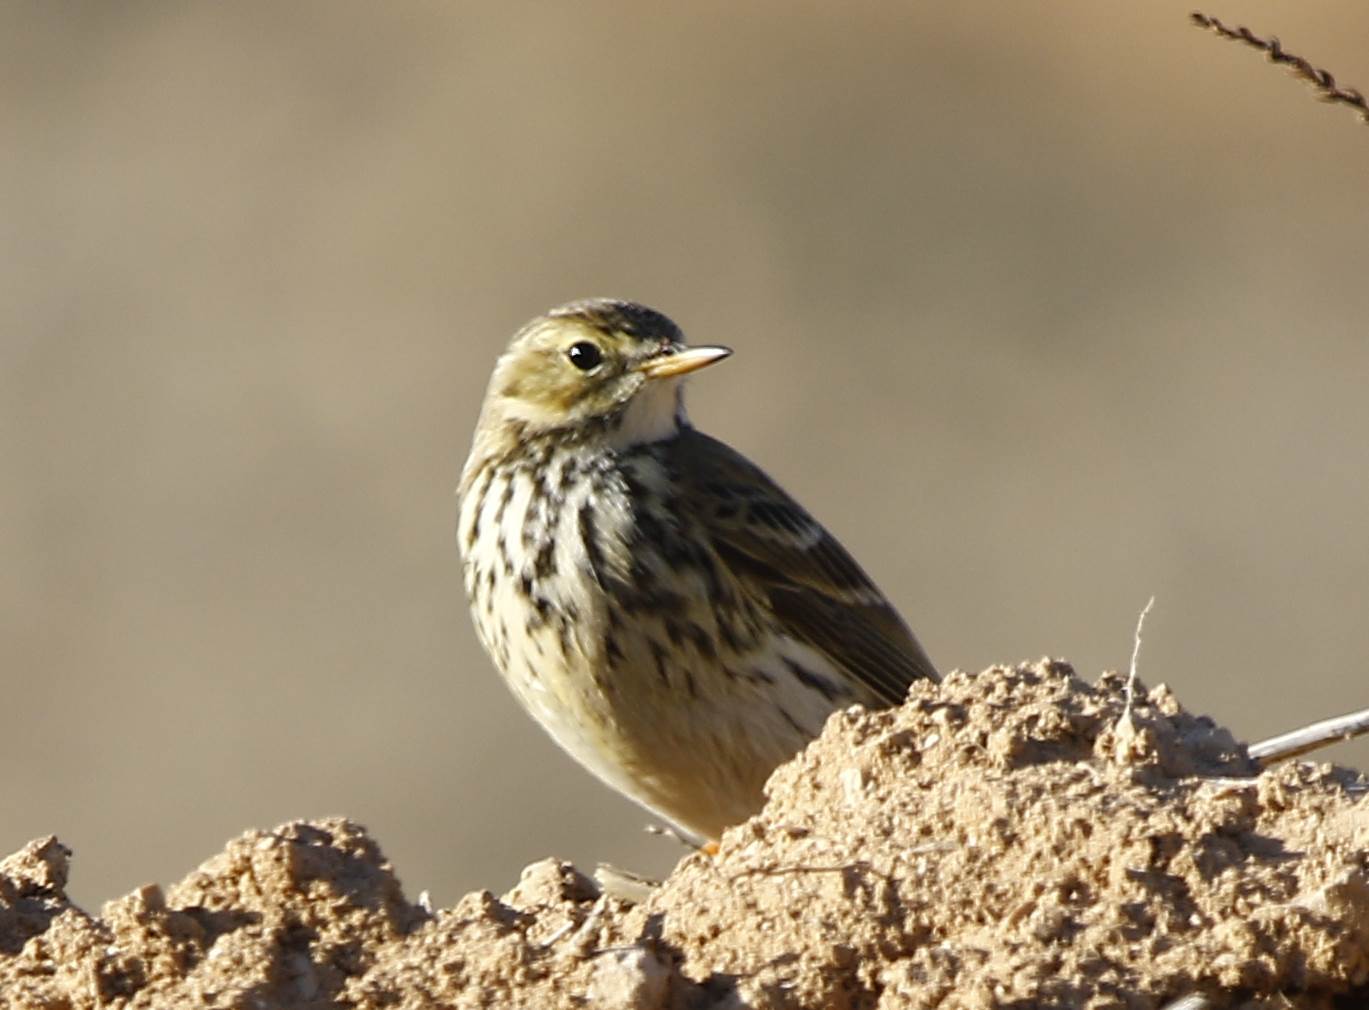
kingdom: Animalia
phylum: Chordata
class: Aves
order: Passeriformes
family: Motacillidae
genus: Anthus
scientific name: Anthus pratensis
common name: Meadow pipit
